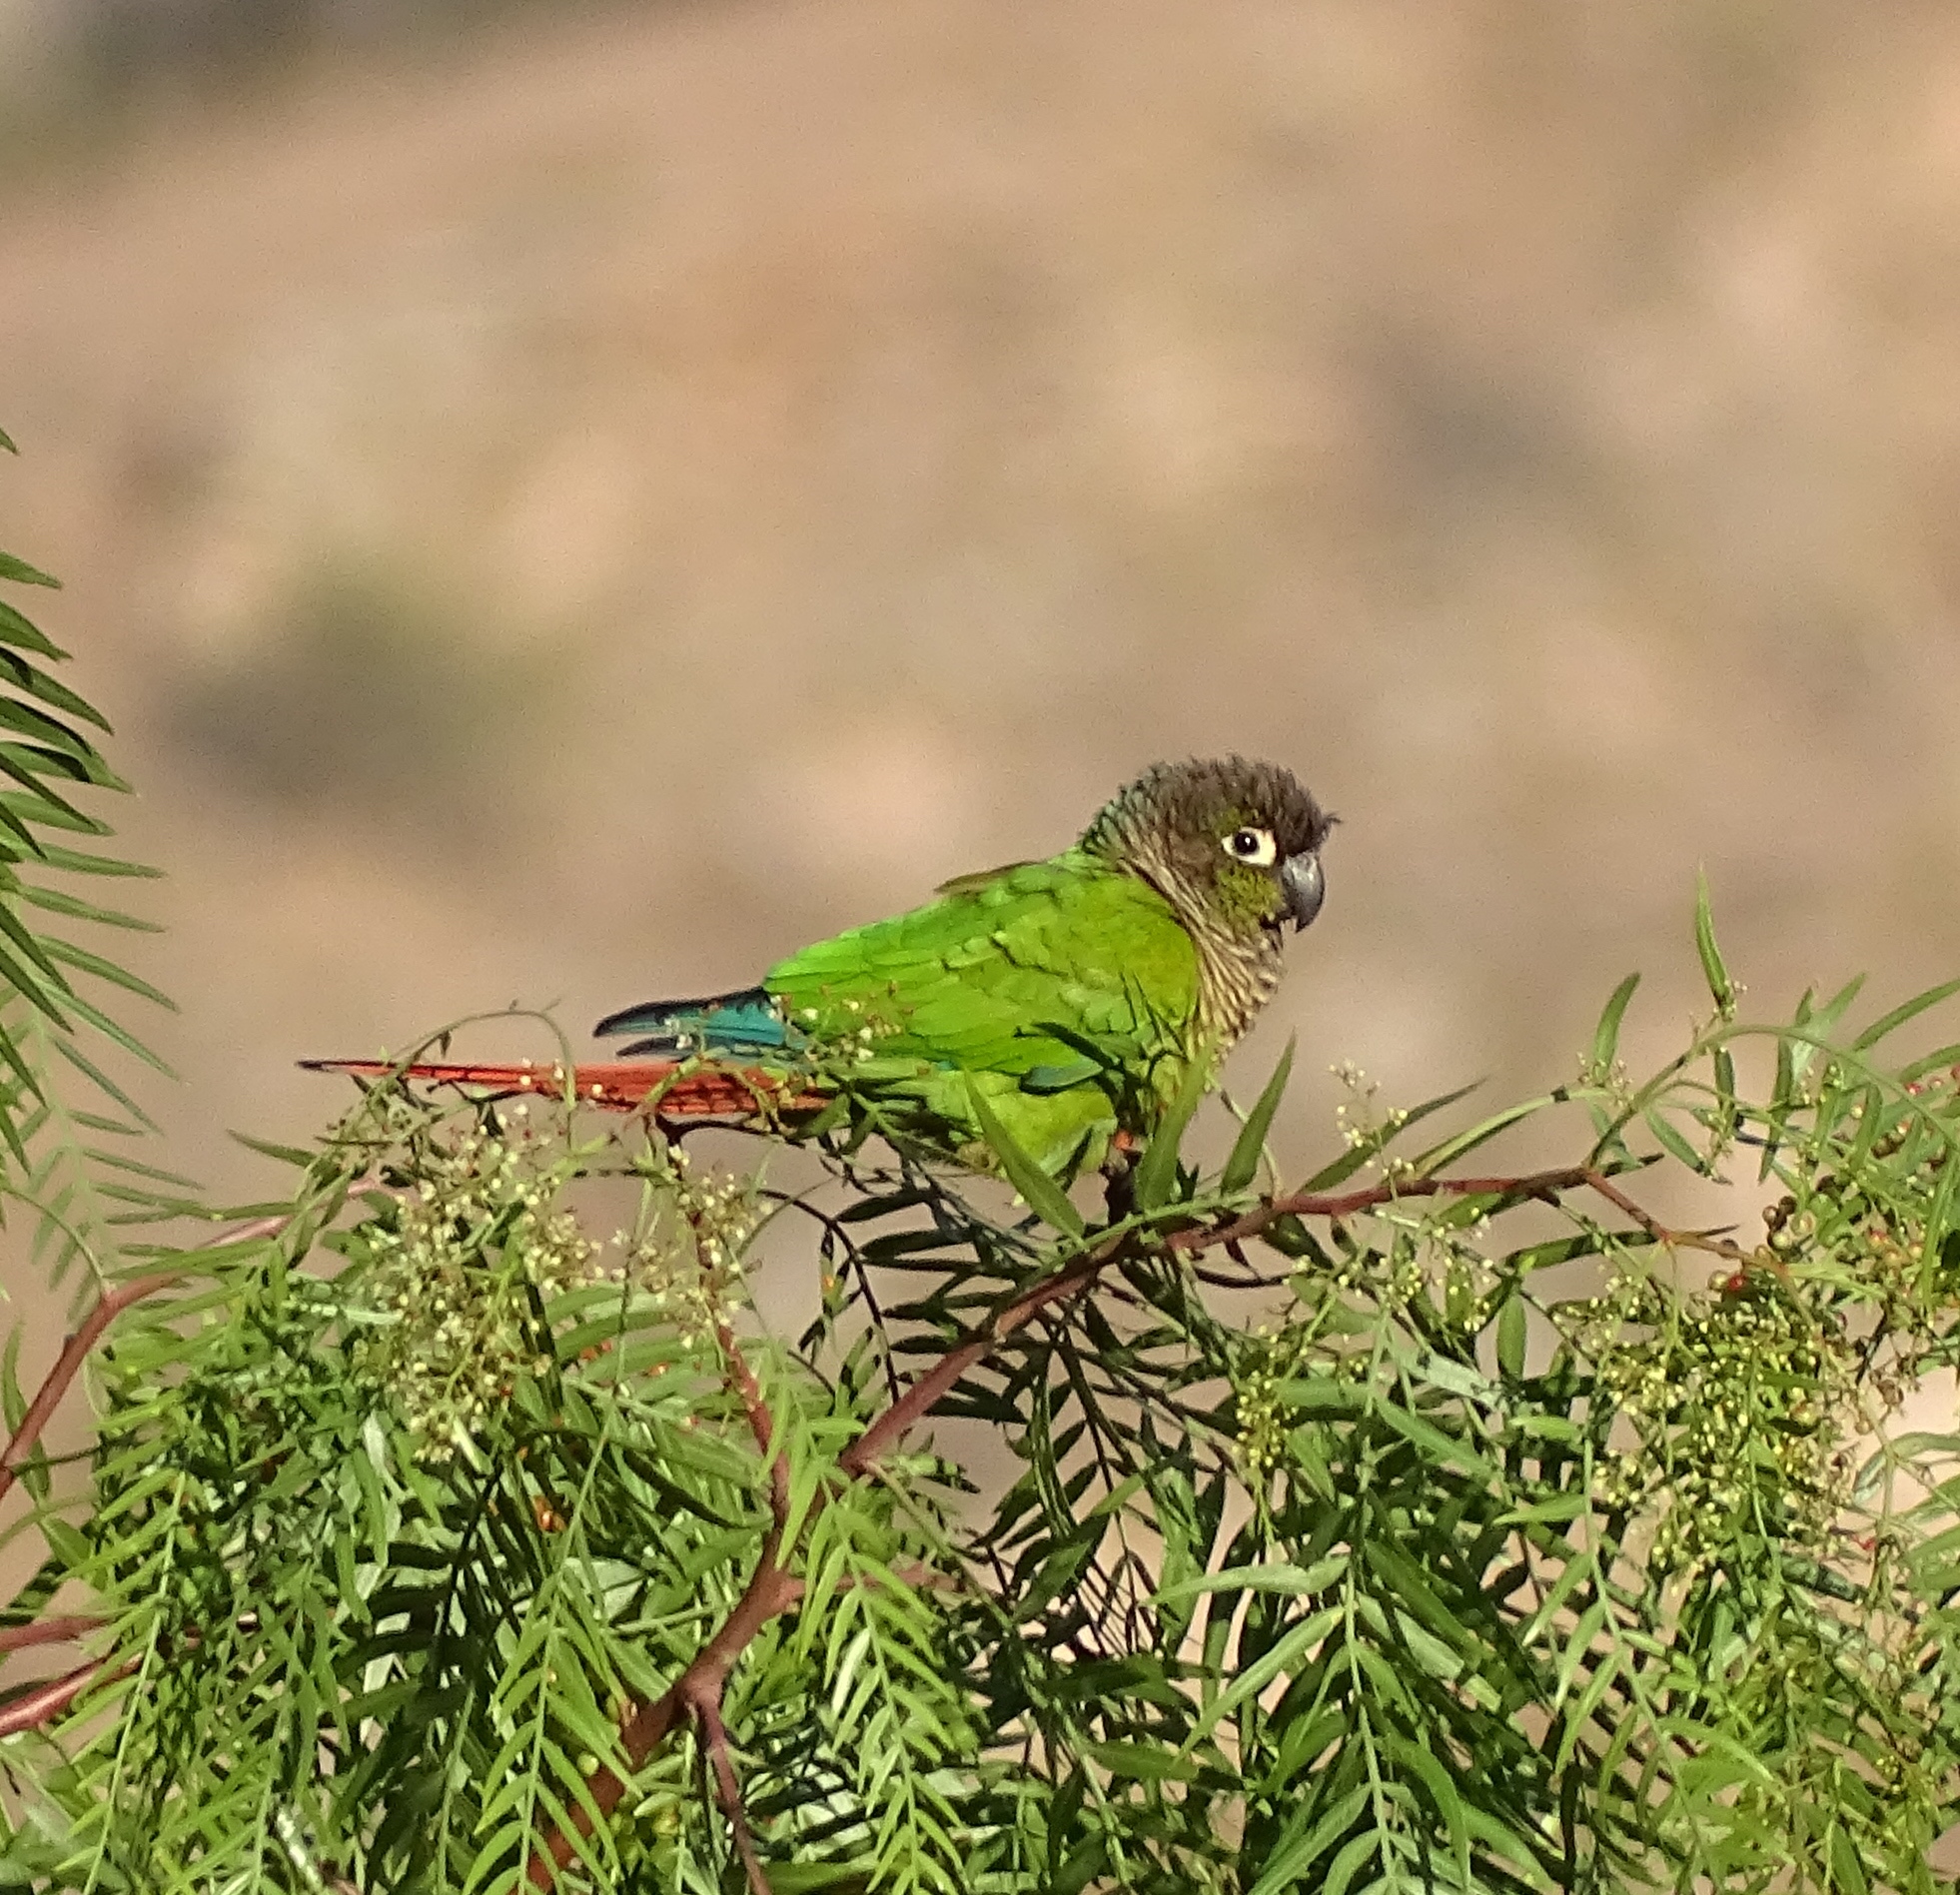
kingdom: Animalia
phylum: Chordata
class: Aves
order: Psittaciformes
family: Psittacidae
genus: Pyrrhura
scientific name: Pyrrhura molinae
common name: Green-cheeked parakeet
